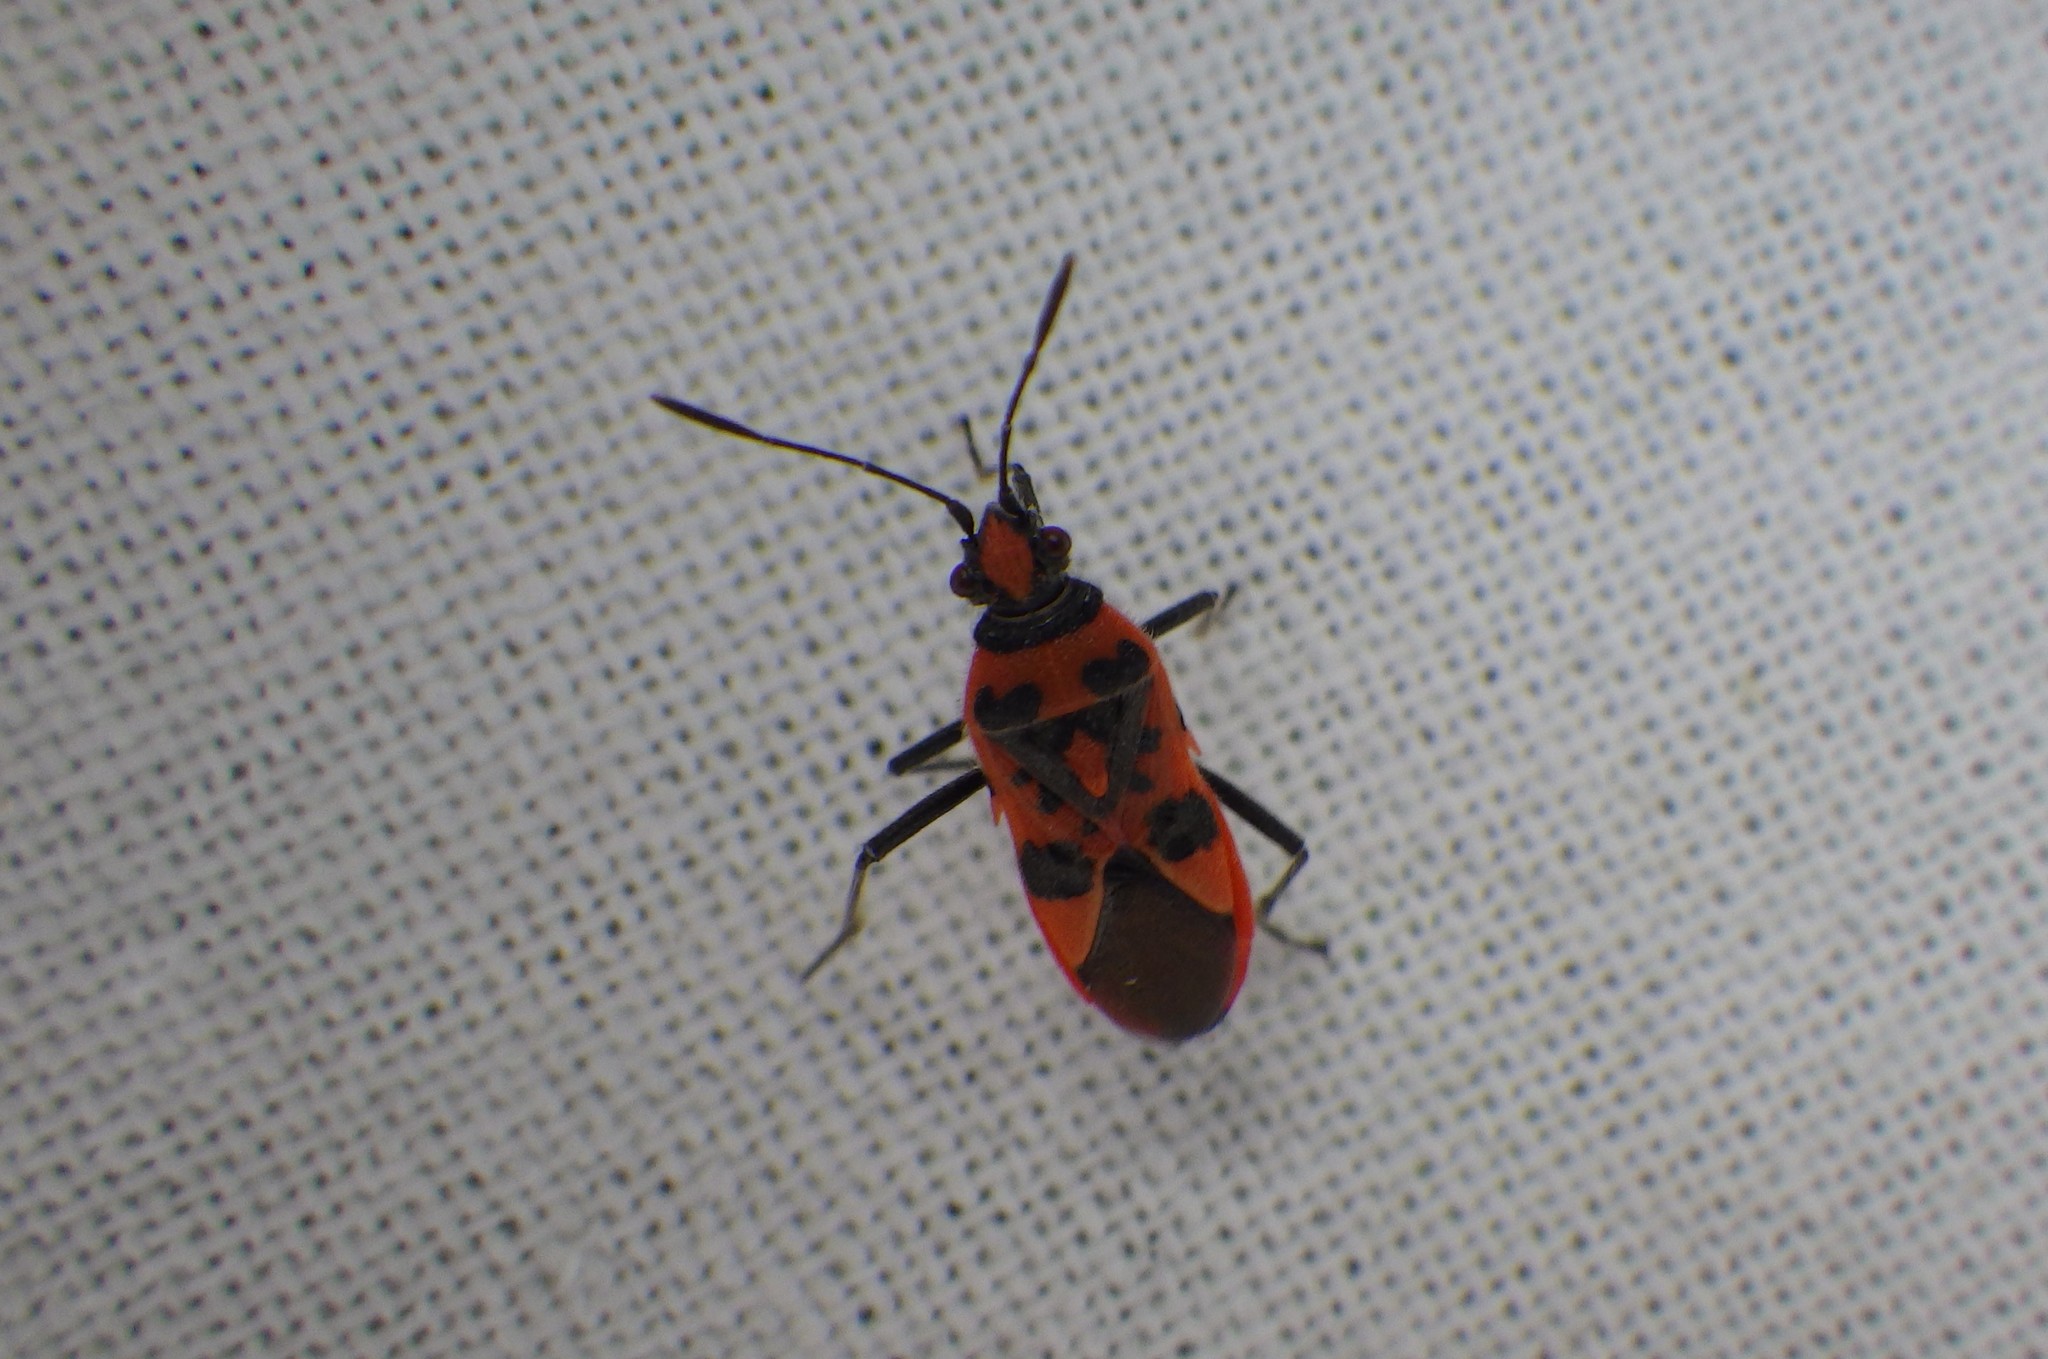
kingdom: Animalia
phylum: Arthropoda
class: Insecta
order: Hemiptera
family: Rhopalidae
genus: Corizus
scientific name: Corizus hyoscyami
